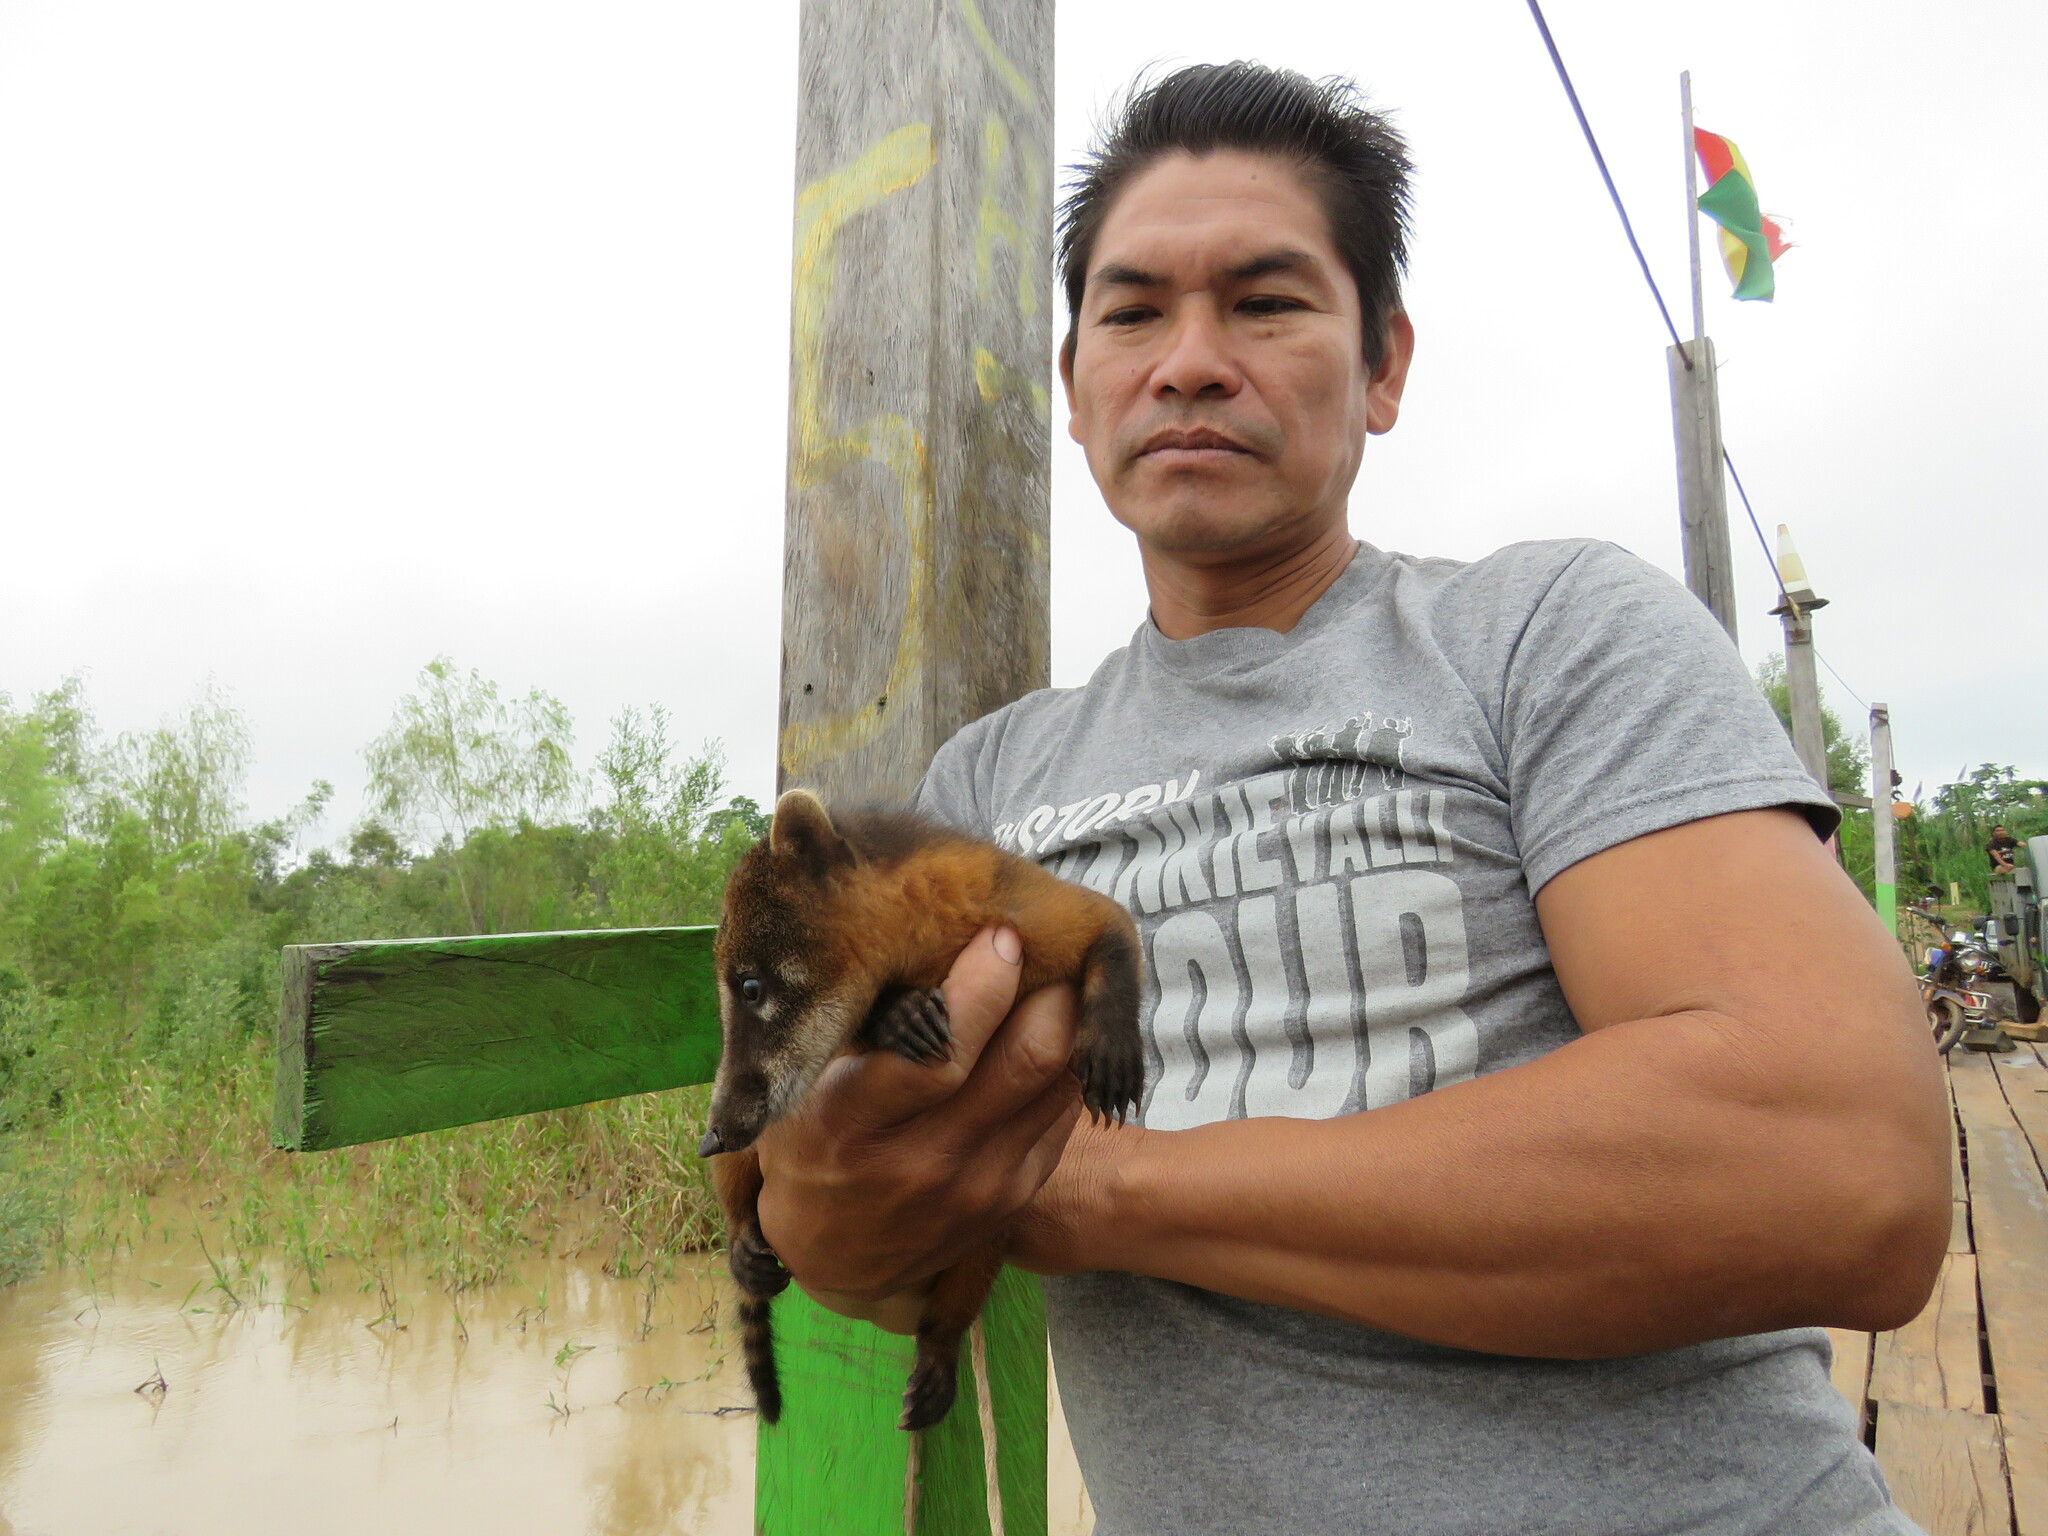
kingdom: Animalia
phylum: Chordata
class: Mammalia
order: Carnivora
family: Procyonidae
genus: Nasua
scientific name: Nasua nasua
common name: South american coati
